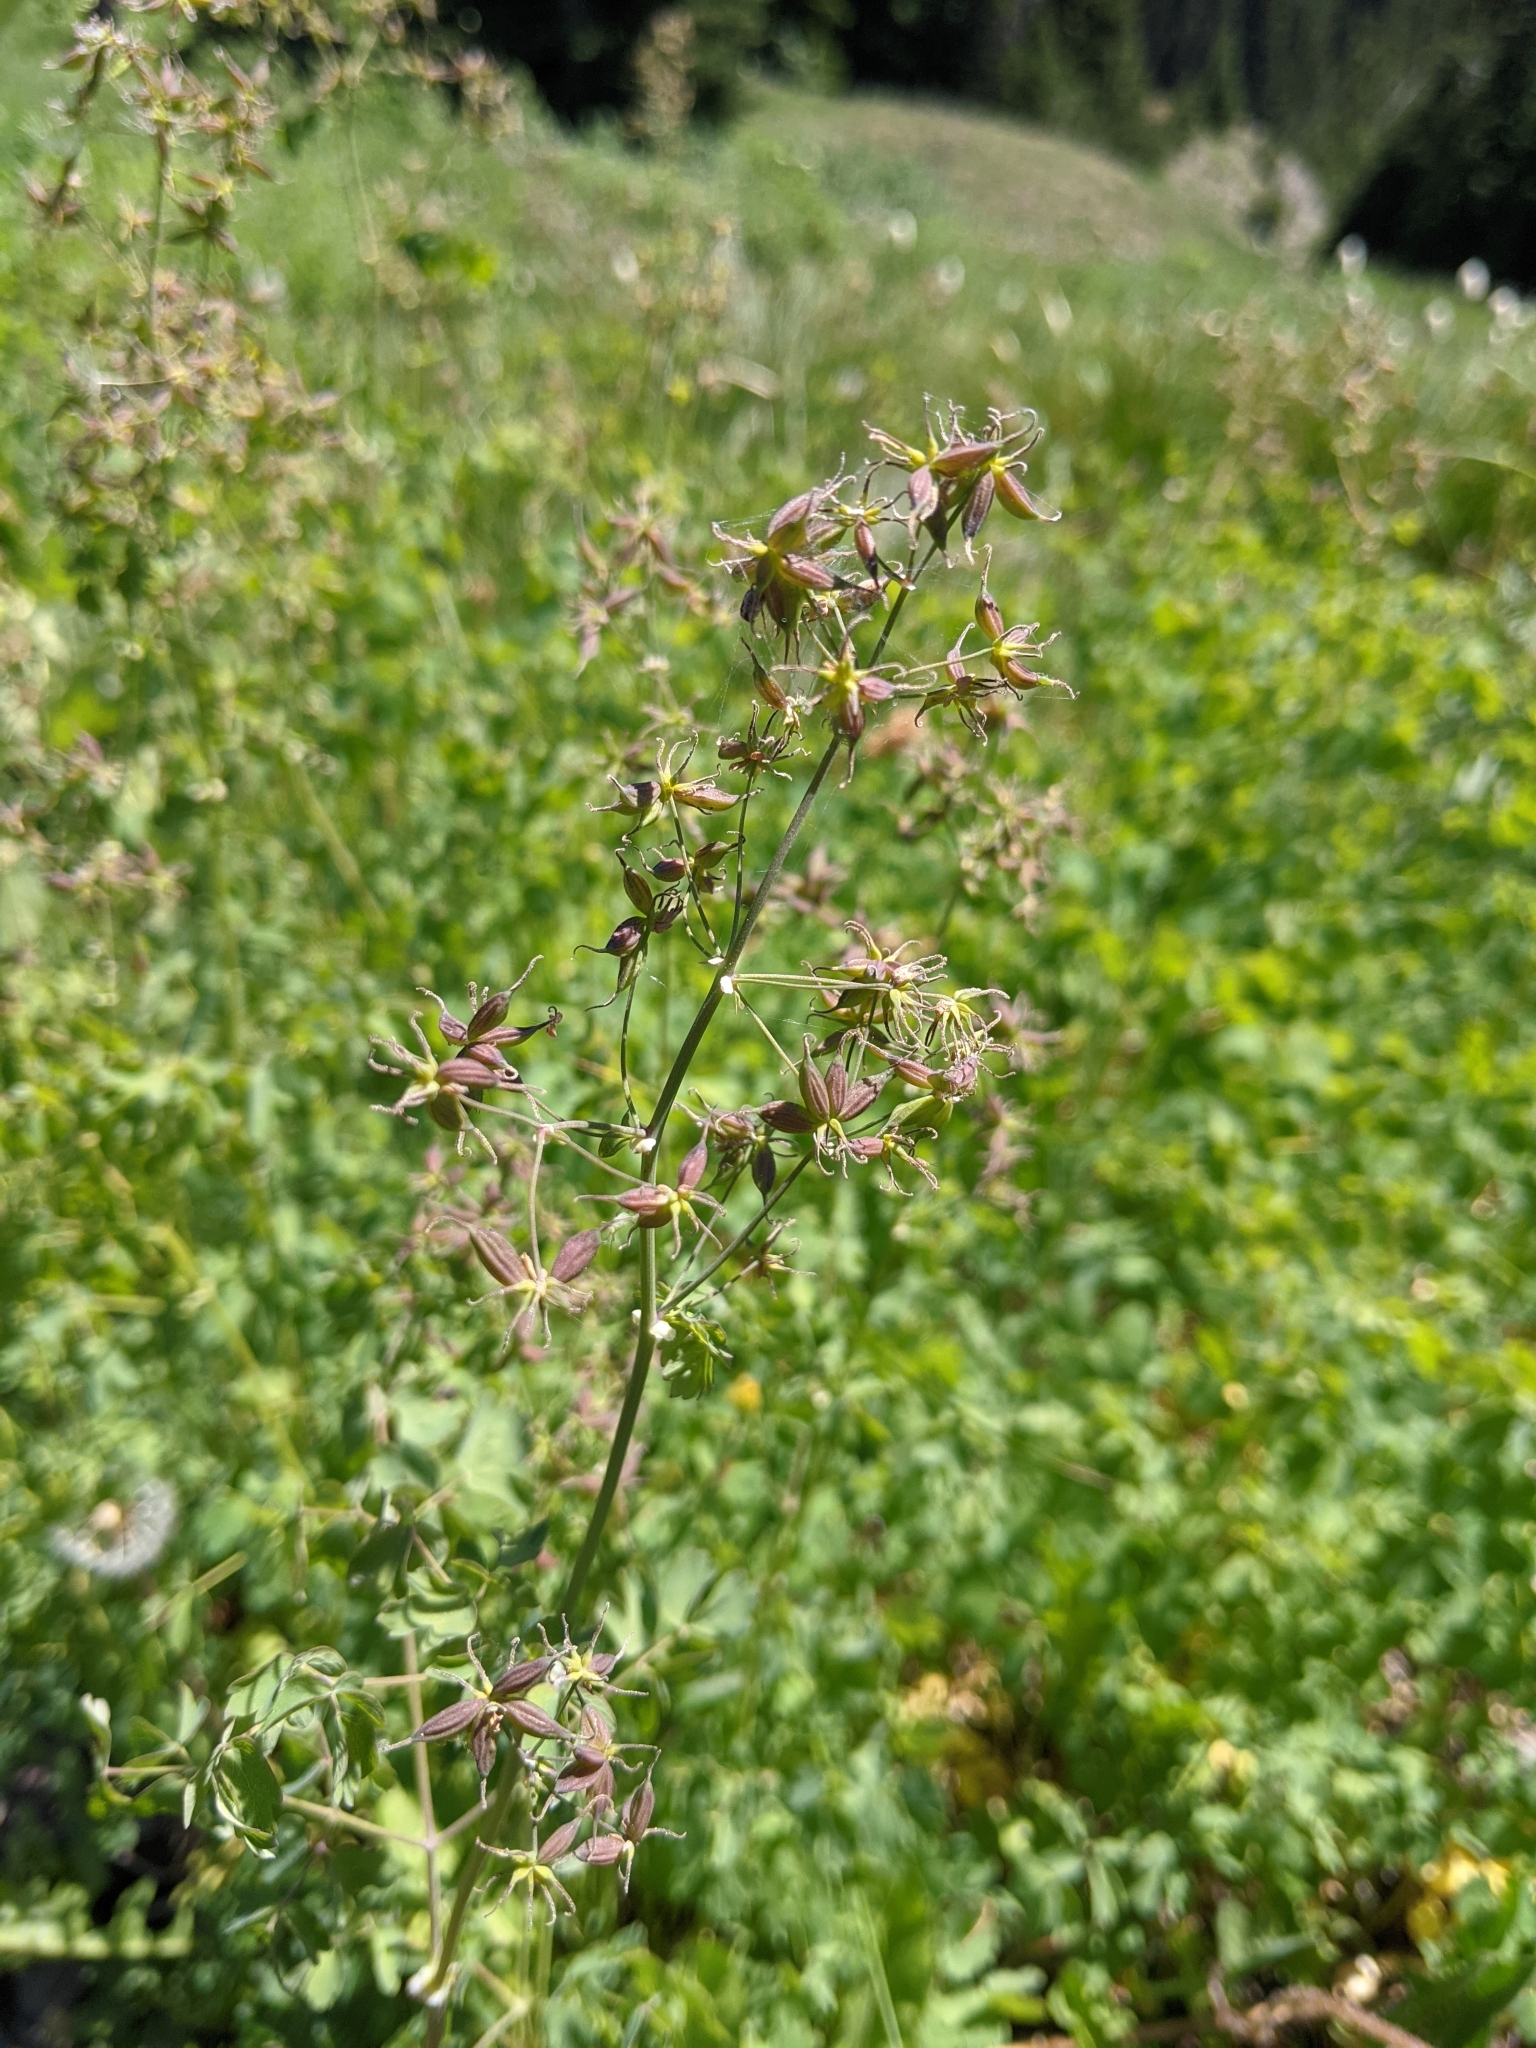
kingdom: Plantae
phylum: Tracheophyta
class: Magnoliopsida
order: Ranunculales
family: Ranunculaceae
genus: Thalictrum
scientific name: Thalictrum occidentale
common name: Western meadow-rue
